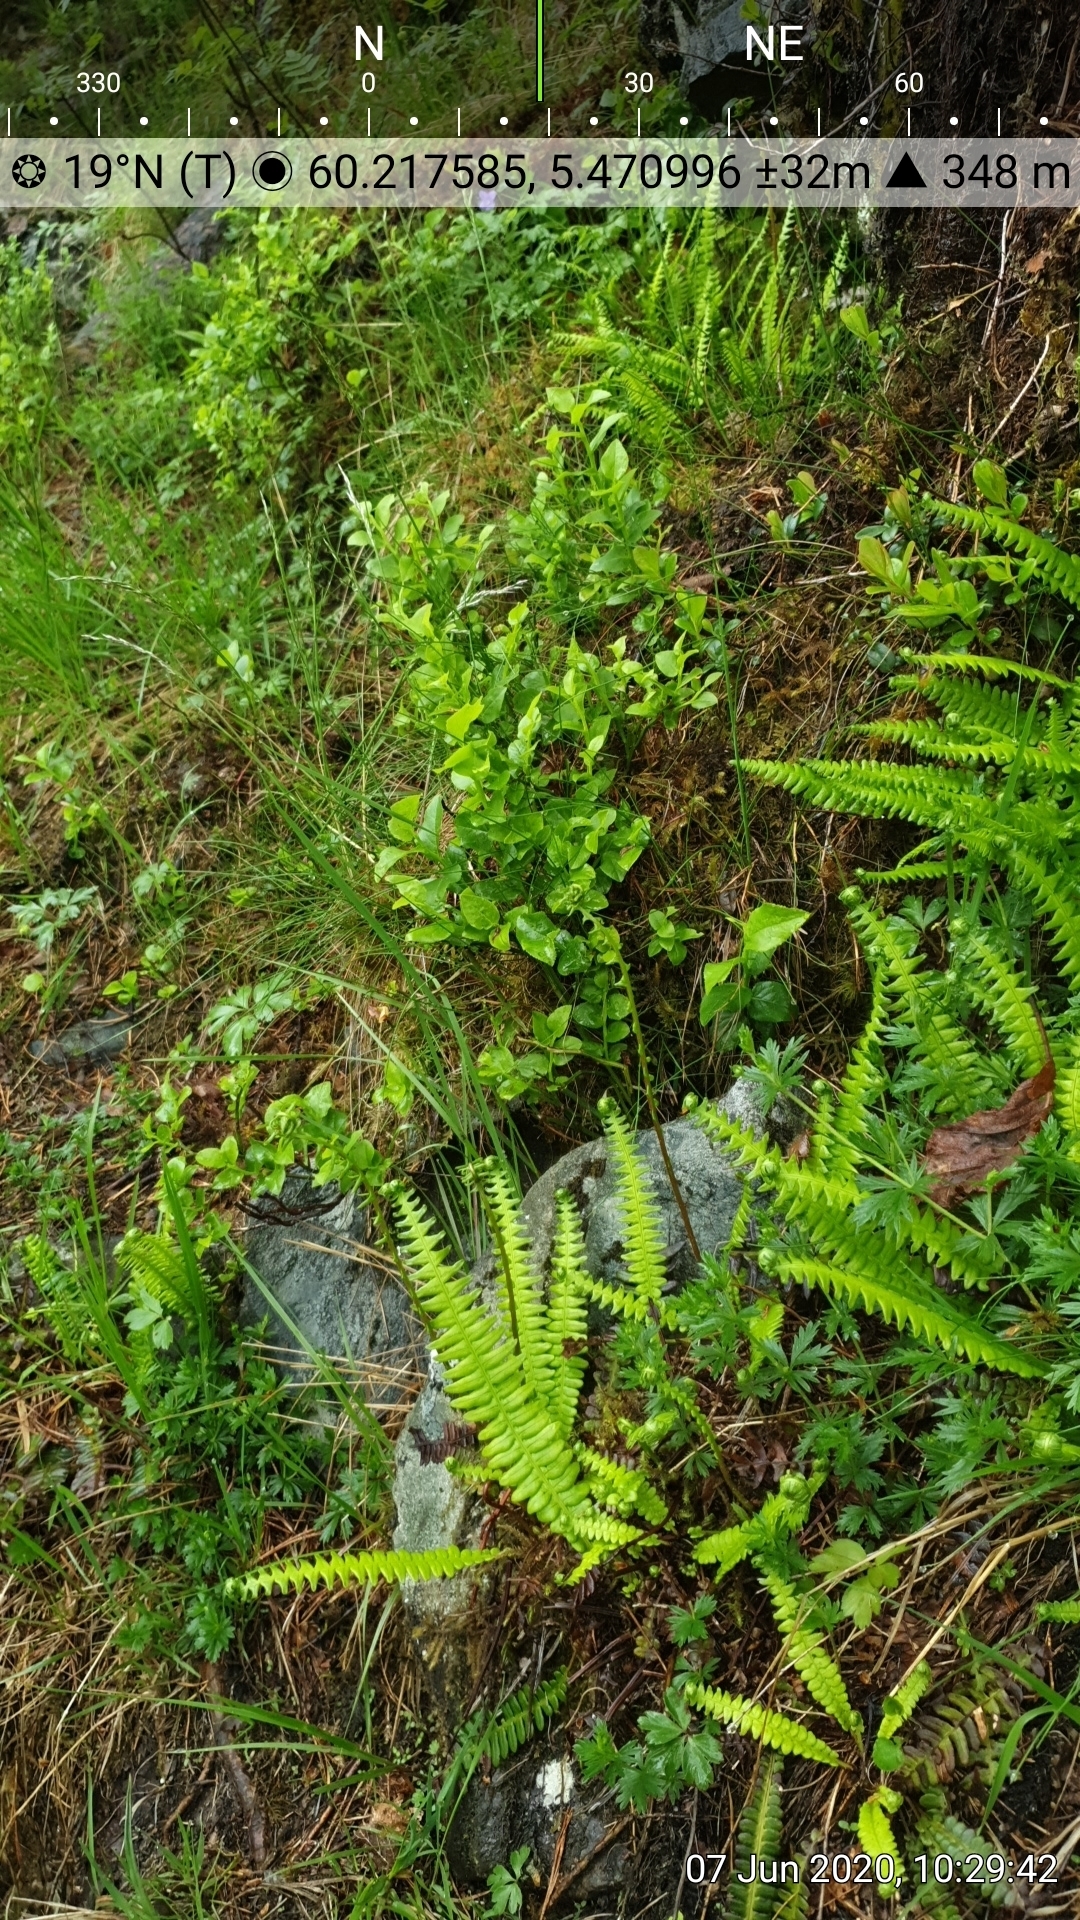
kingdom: Plantae
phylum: Tracheophyta
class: Polypodiopsida
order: Polypodiales
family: Blechnaceae
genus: Struthiopteris
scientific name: Struthiopteris spicant
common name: Deer fern
